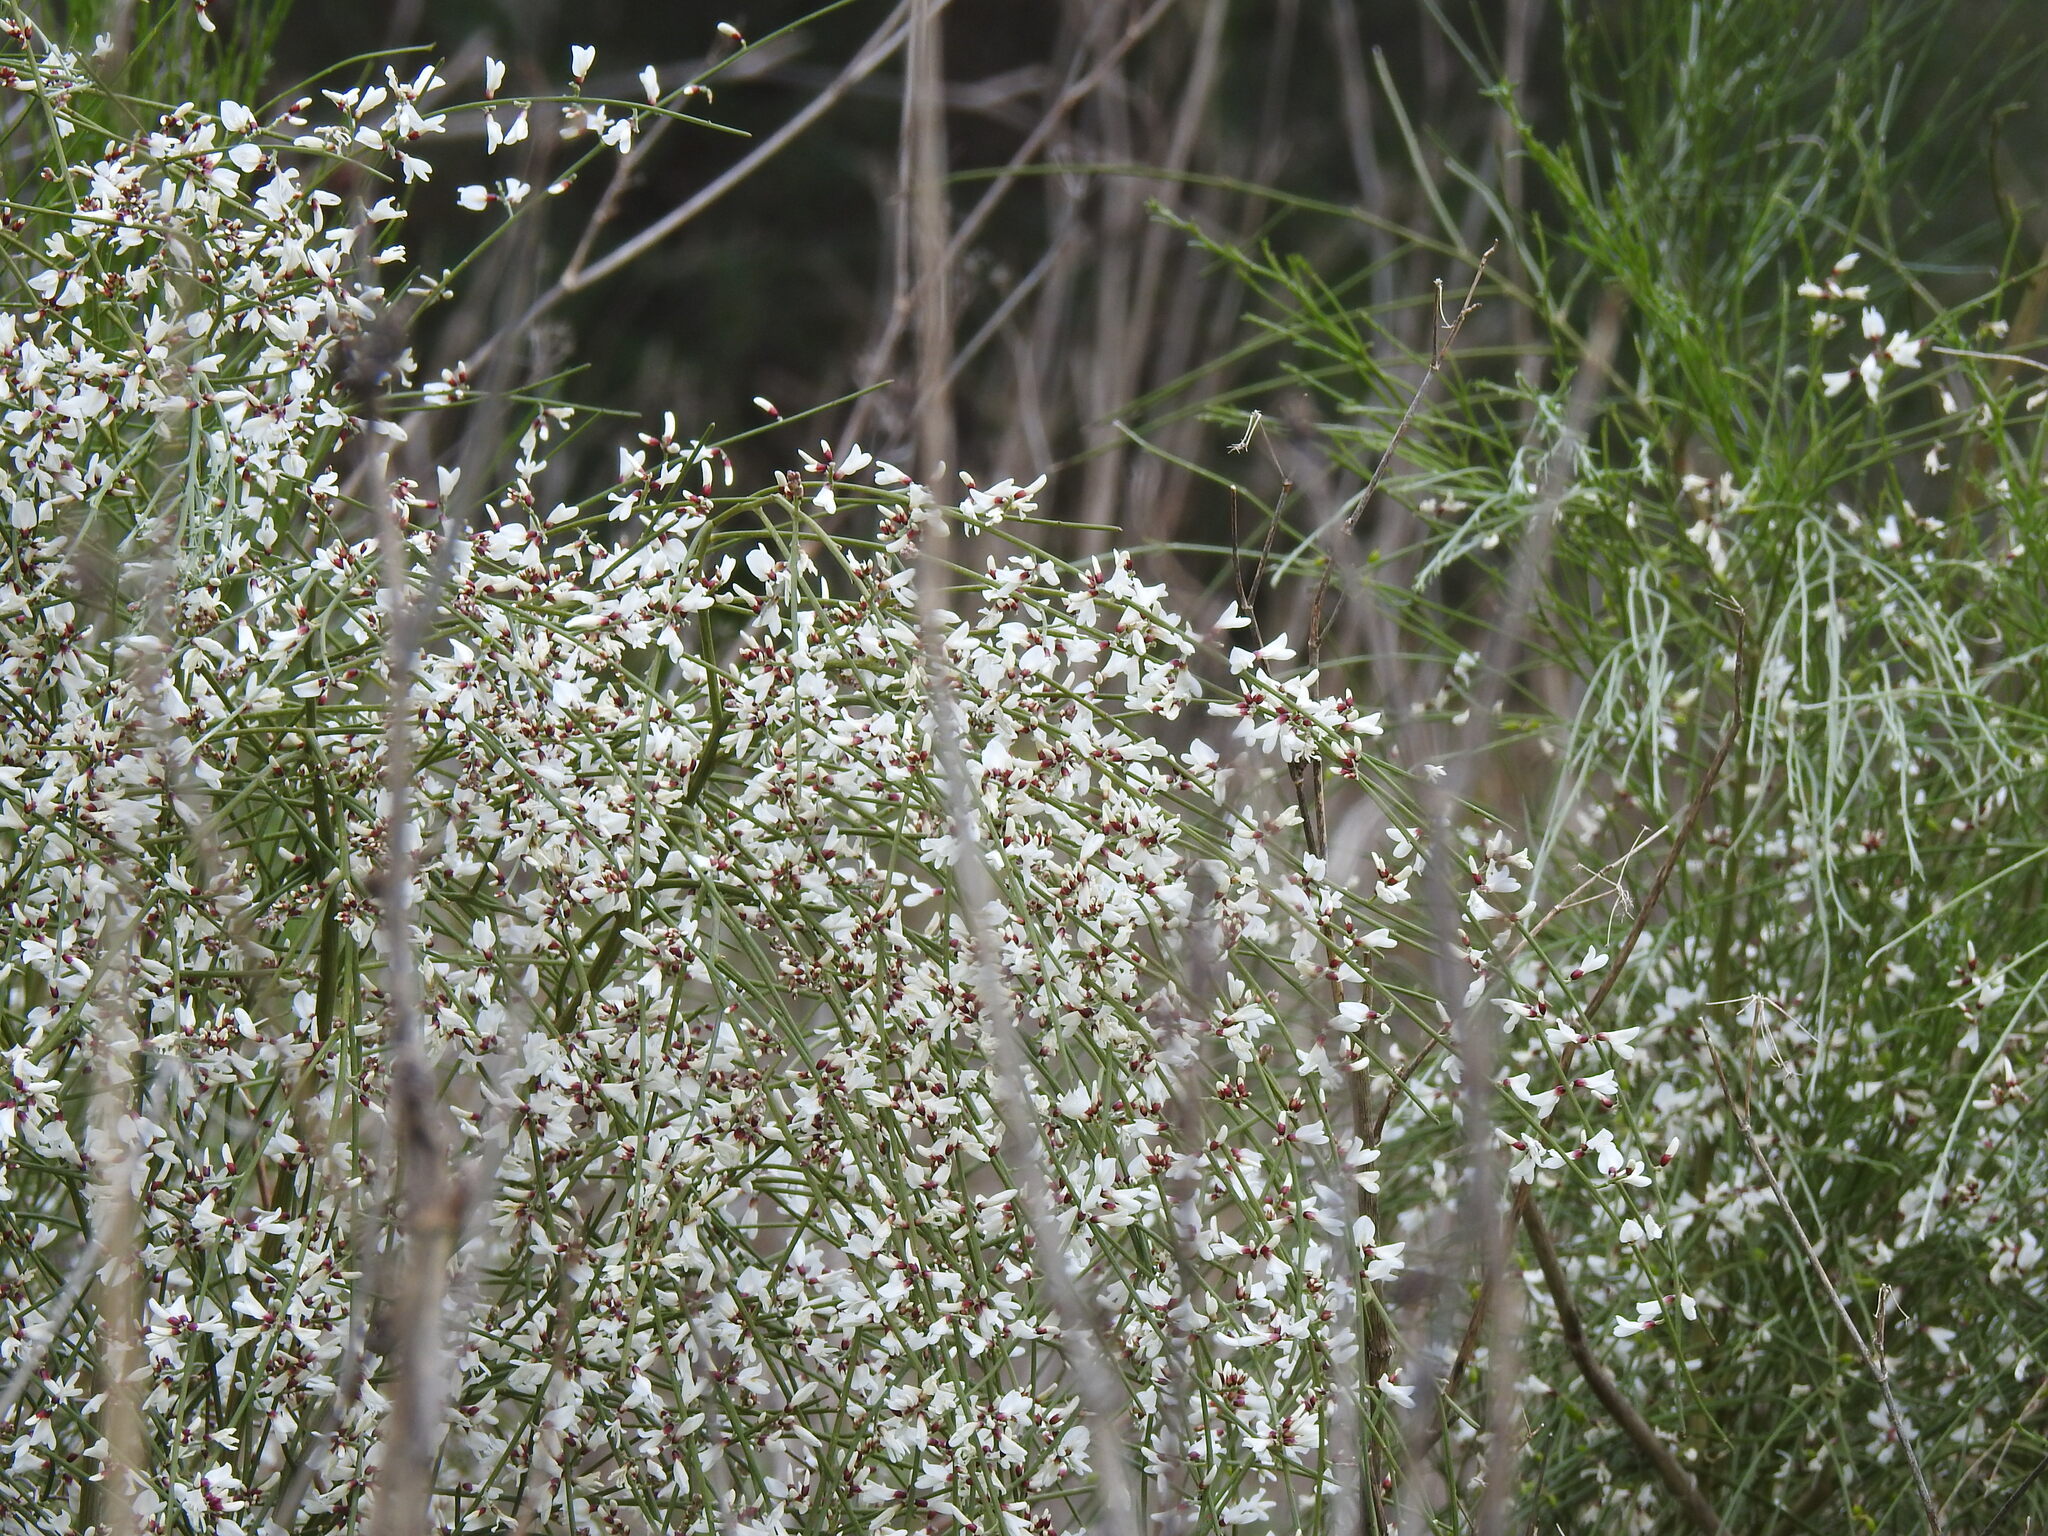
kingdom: Plantae
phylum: Tracheophyta
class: Magnoliopsida
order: Fabales
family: Fabaceae
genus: Retama
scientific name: Retama monosperma
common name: Bridal broom
